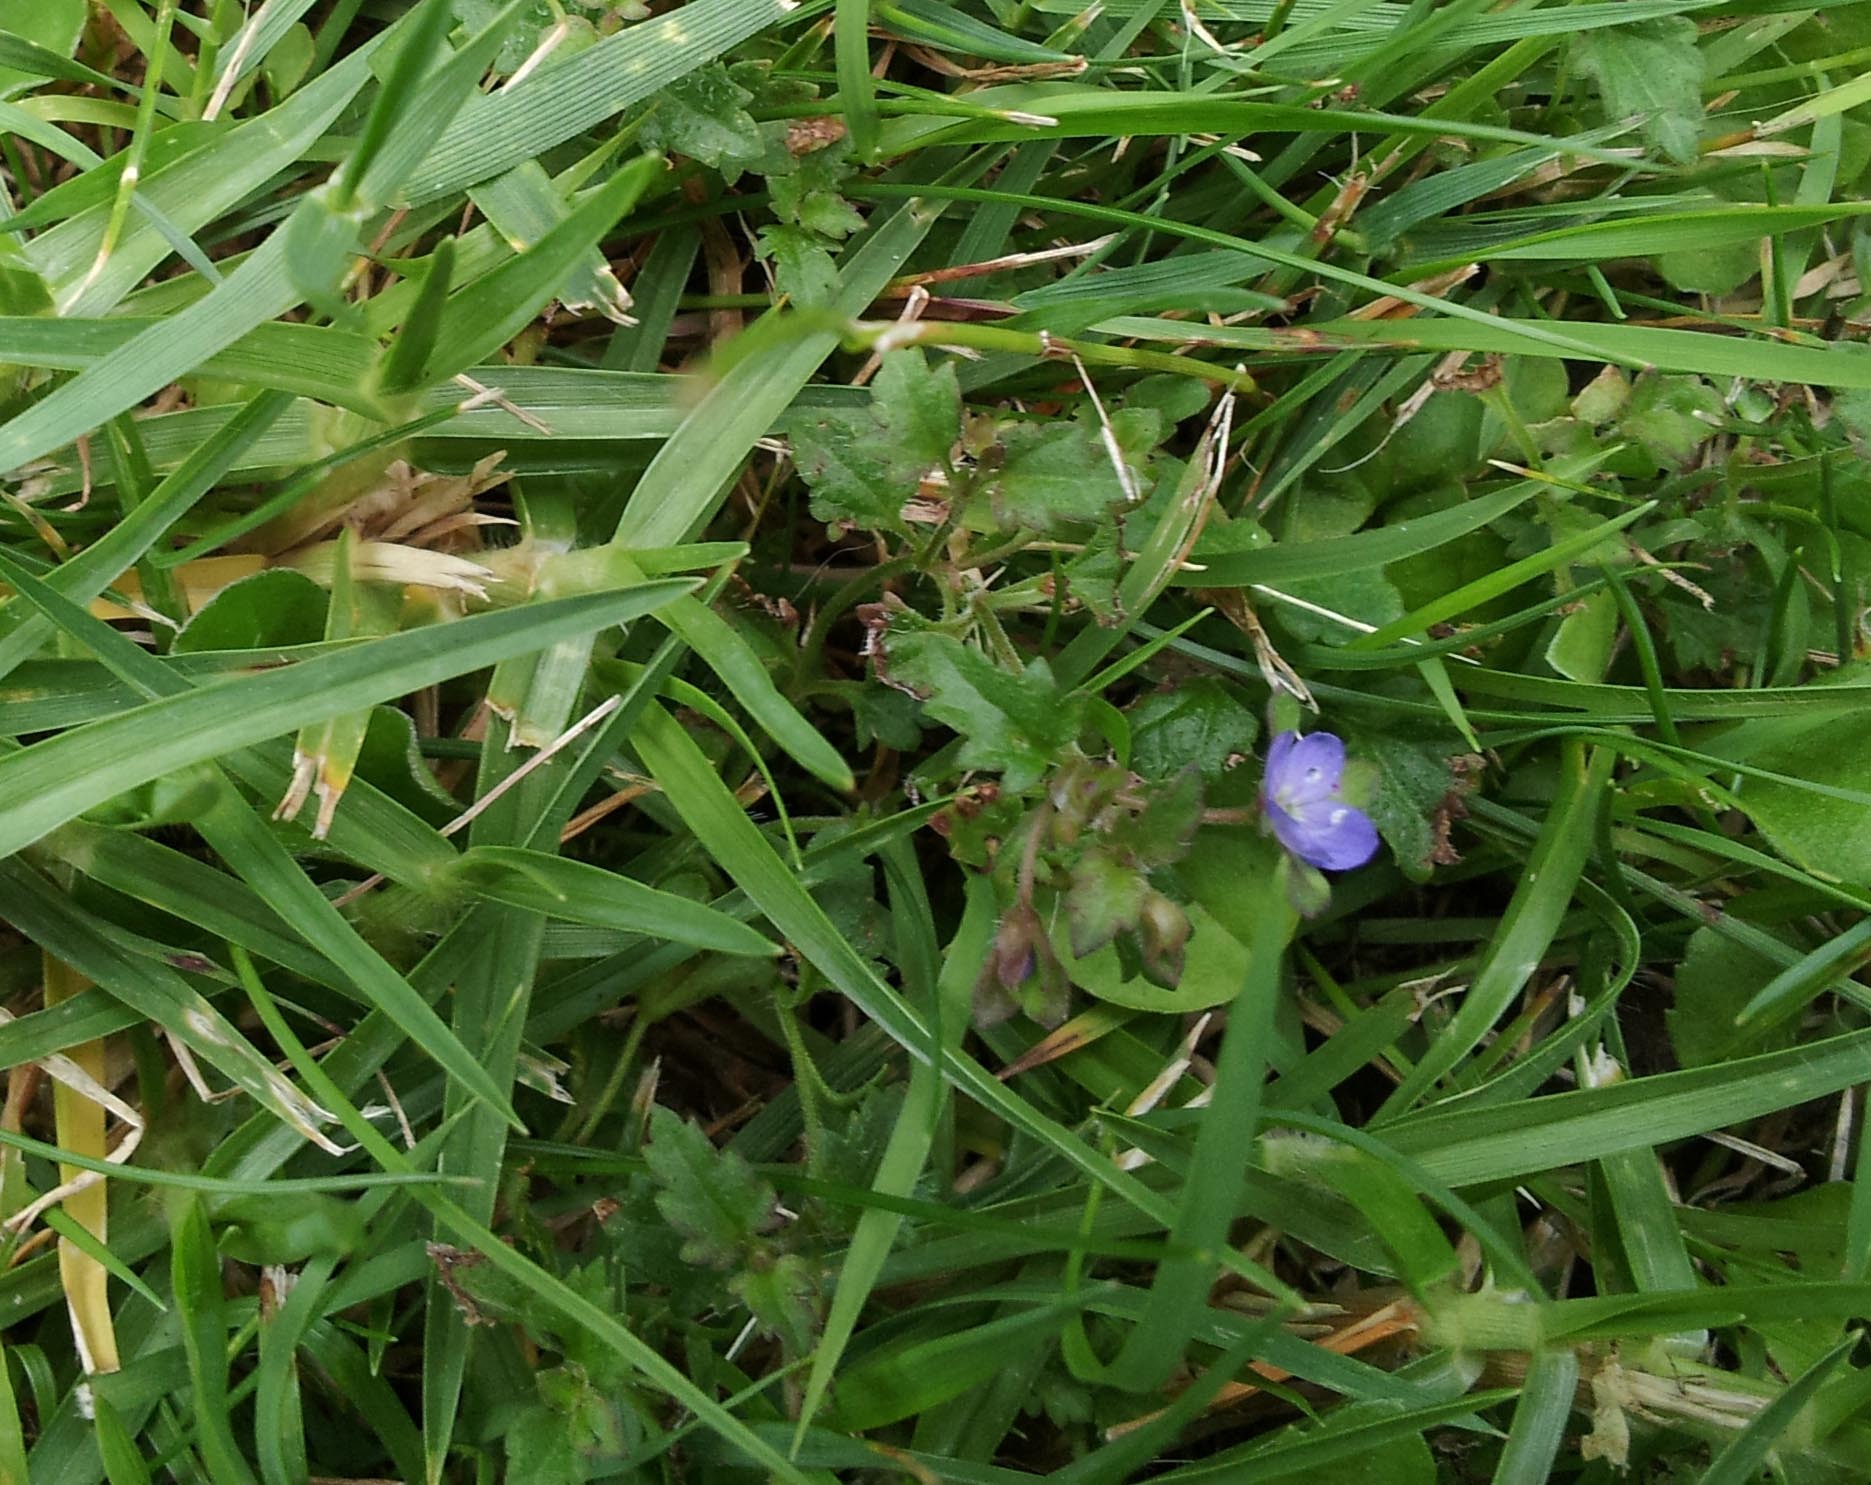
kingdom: Plantae
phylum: Tracheophyta
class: Magnoliopsida
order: Lamiales
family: Plantaginaceae
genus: Veronica
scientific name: Veronica plebeia
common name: Speedwell
